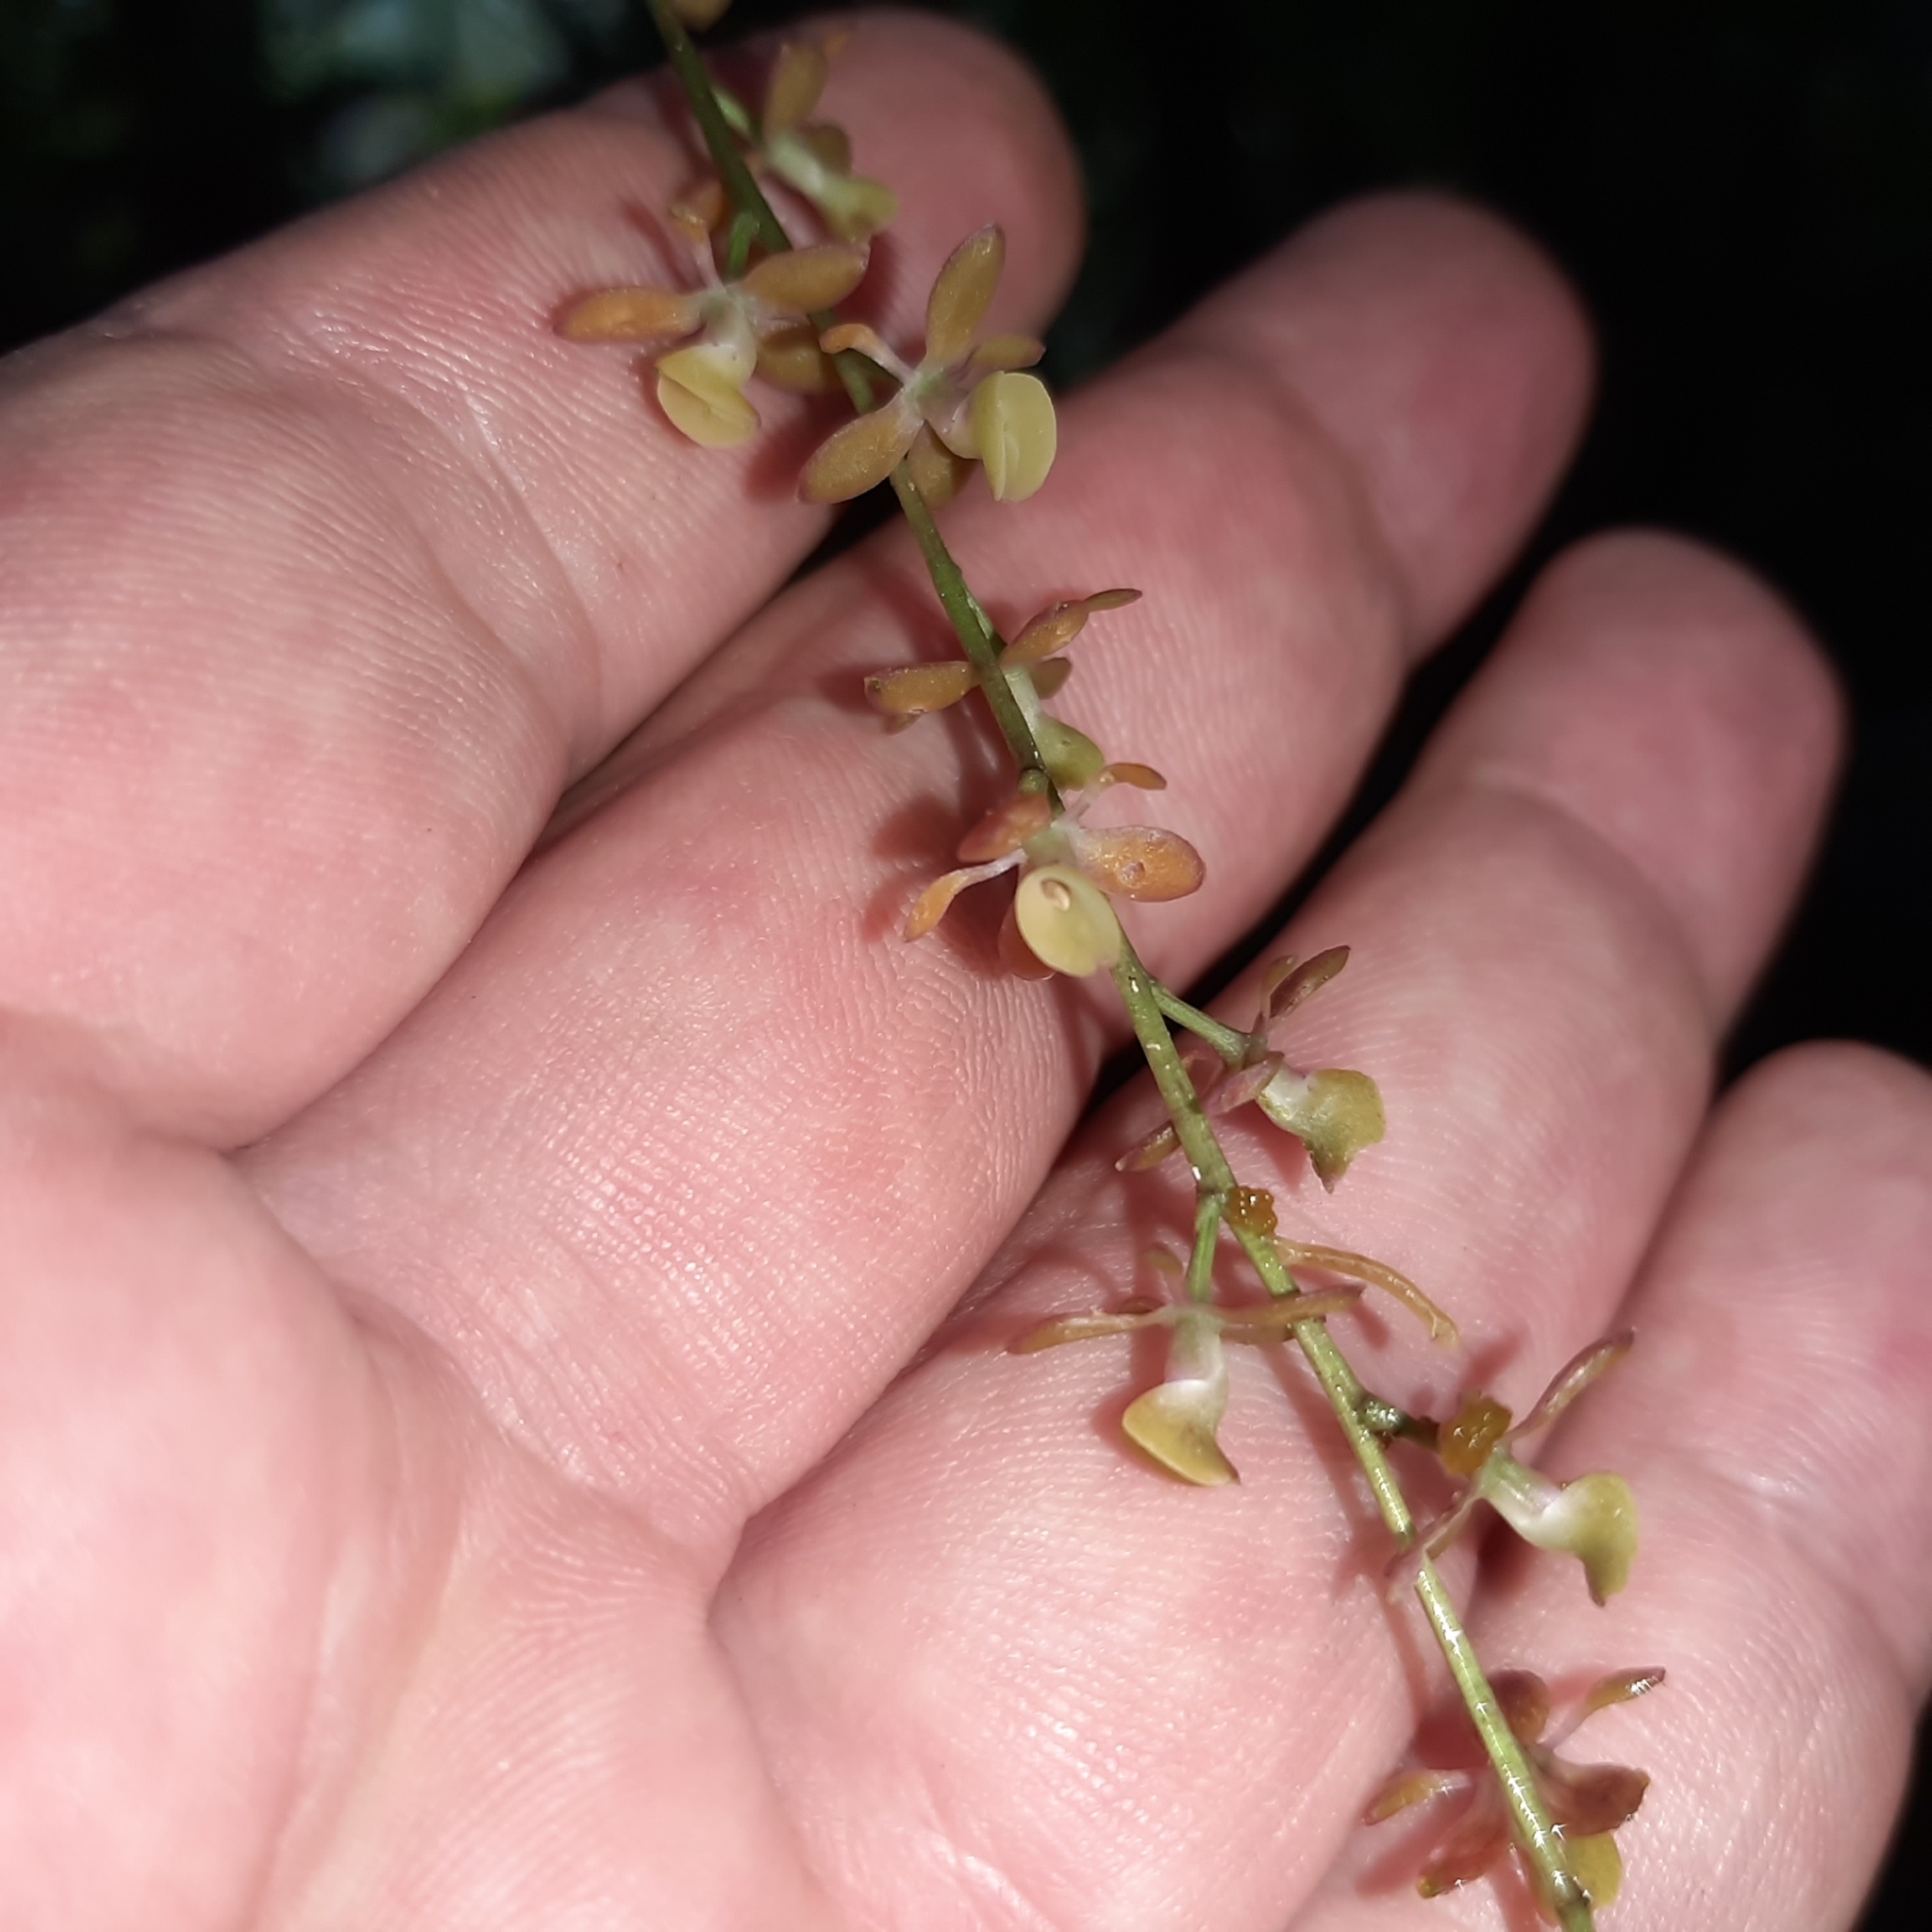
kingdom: Plantae
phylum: Tracheophyta
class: Liliopsida
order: Asparagales
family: Orchidaceae
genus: Epidendrum
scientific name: Epidendrum laucheanum
